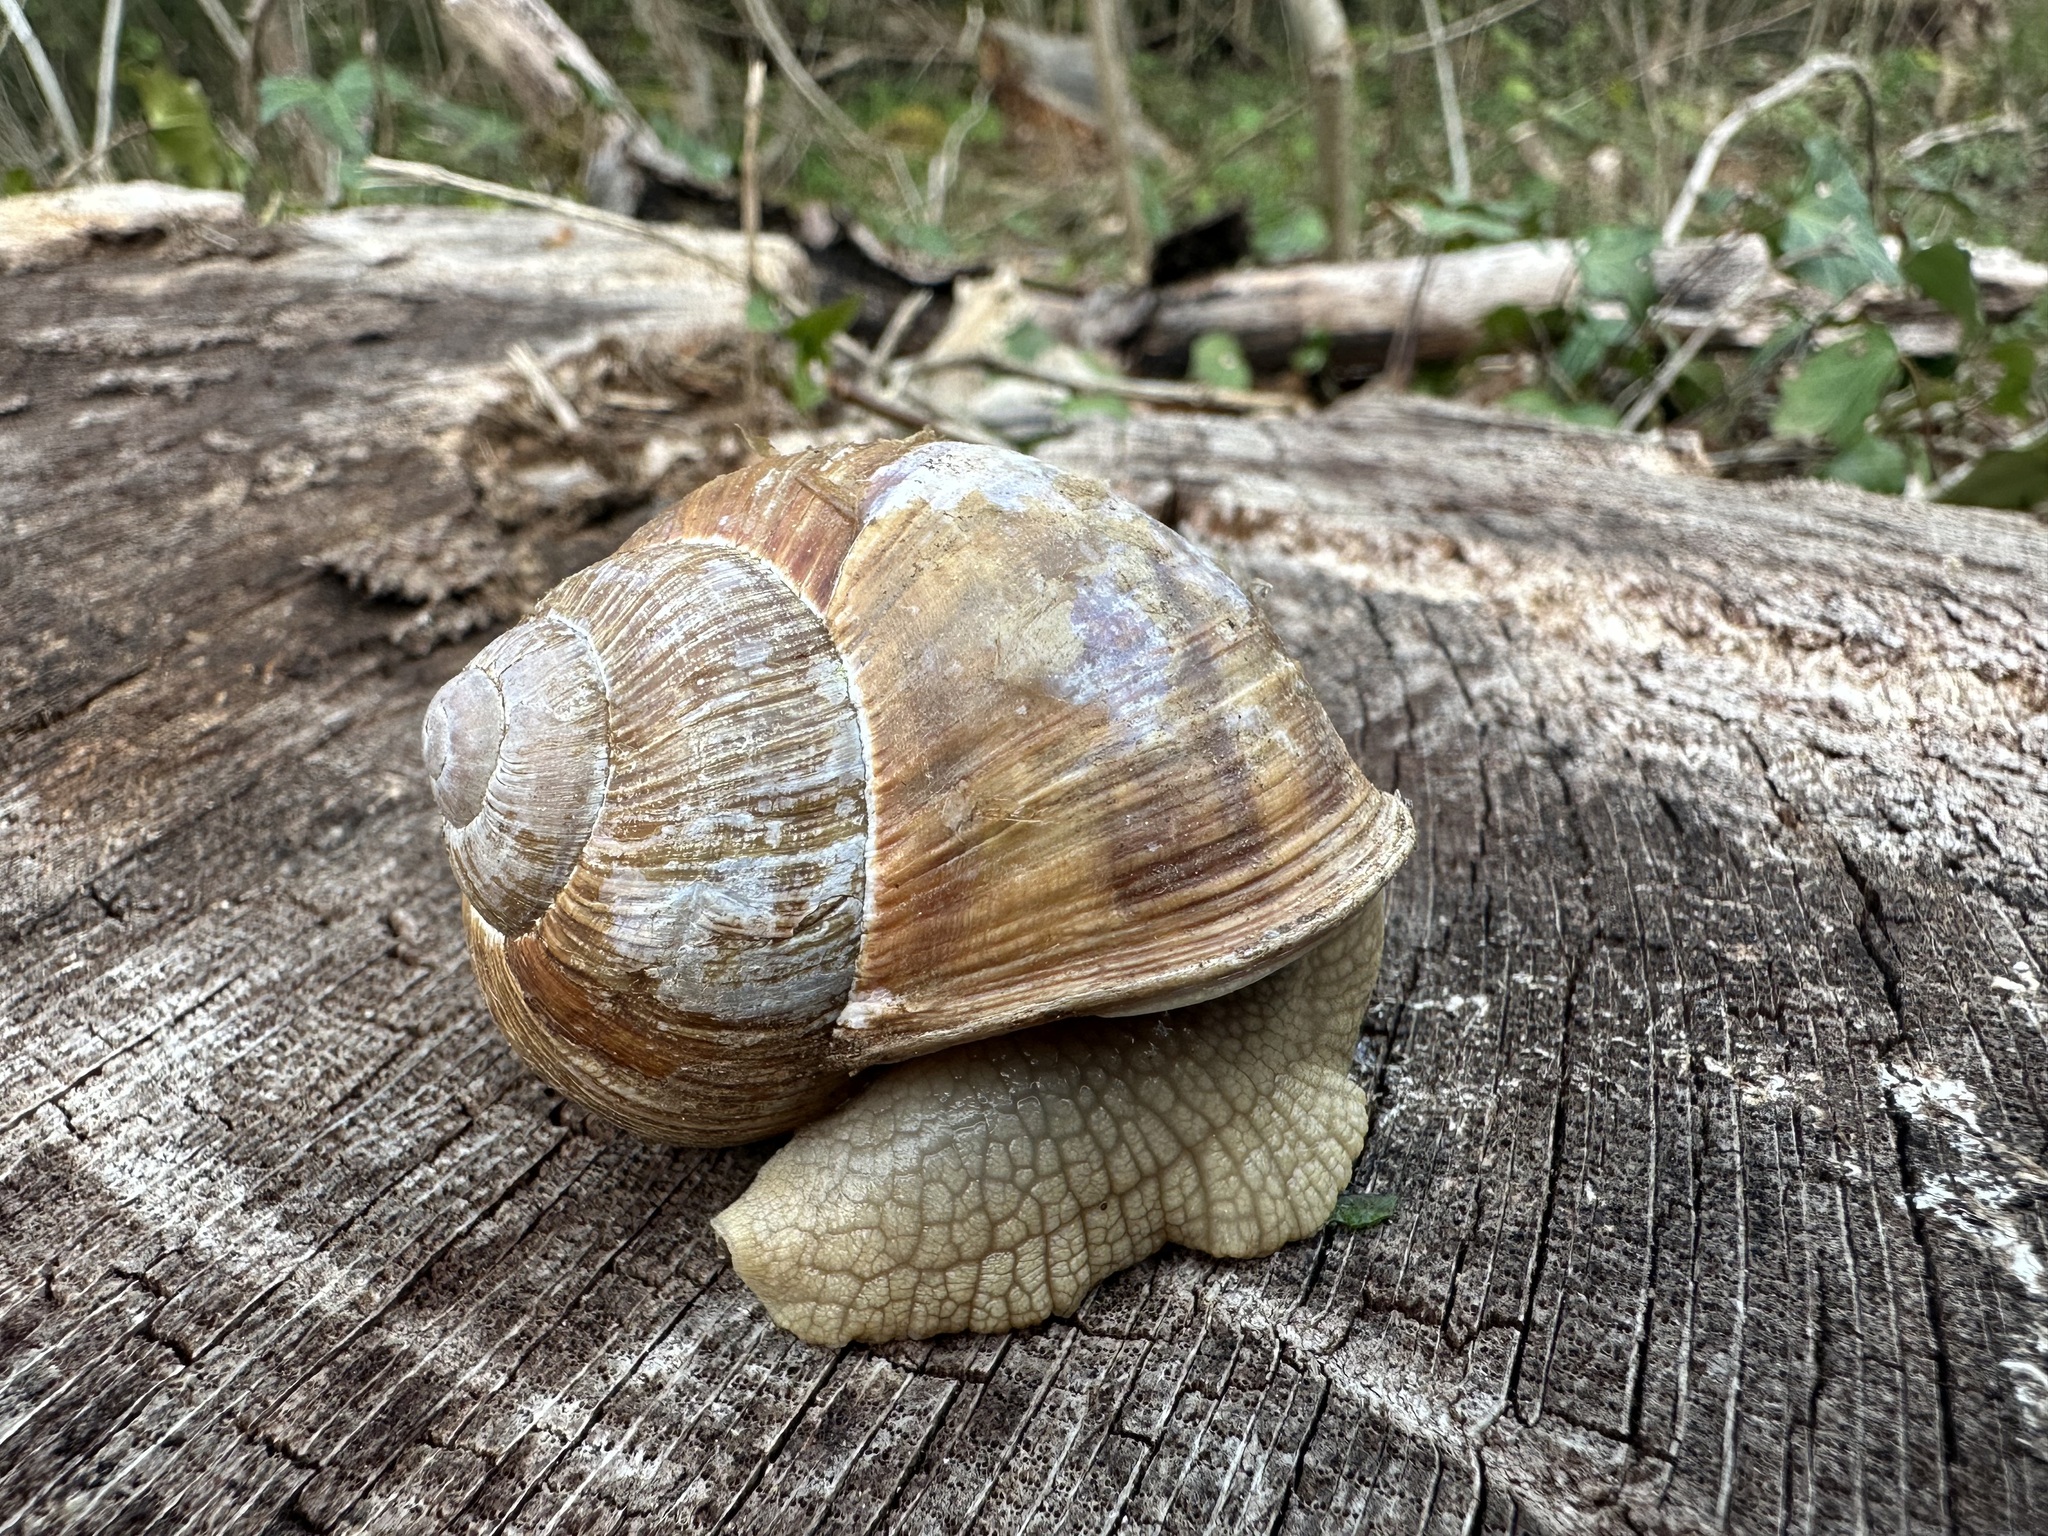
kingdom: Animalia
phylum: Mollusca
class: Gastropoda
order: Stylommatophora
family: Helicidae
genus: Helix
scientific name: Helix pomatia
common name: Roman snail
